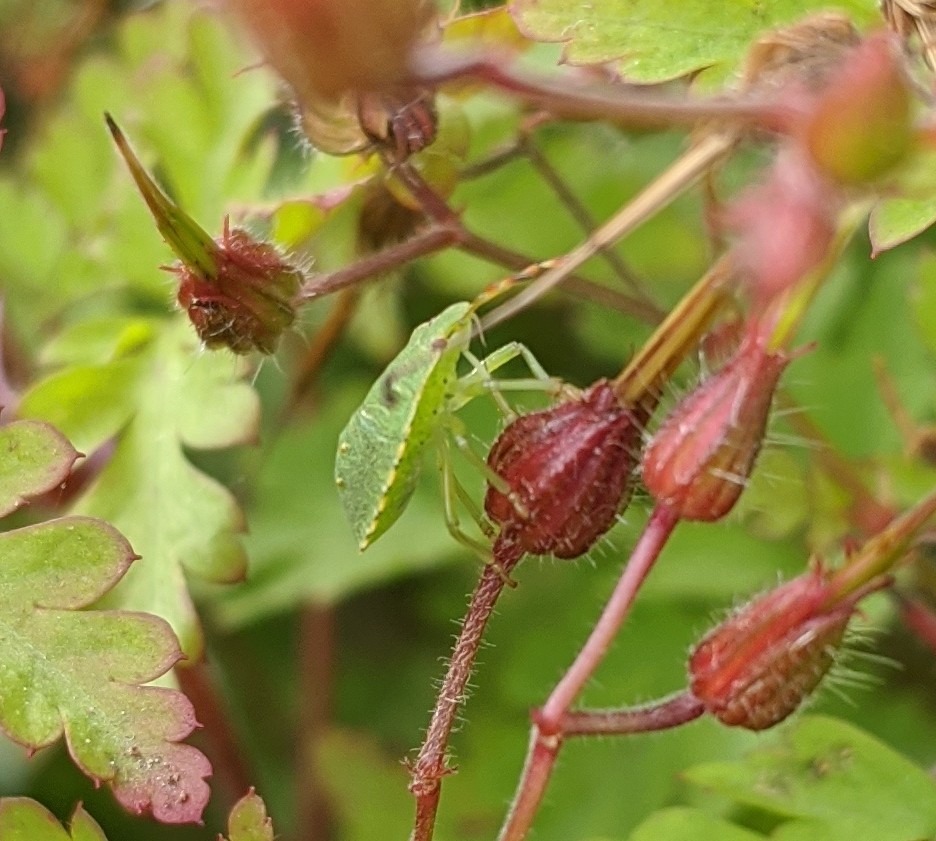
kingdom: Animalia
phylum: Arthropoda
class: Insecta
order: Hemiptera
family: Pentatomidae
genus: Palomena
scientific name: Palomena prasina
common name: Green shieldbug
